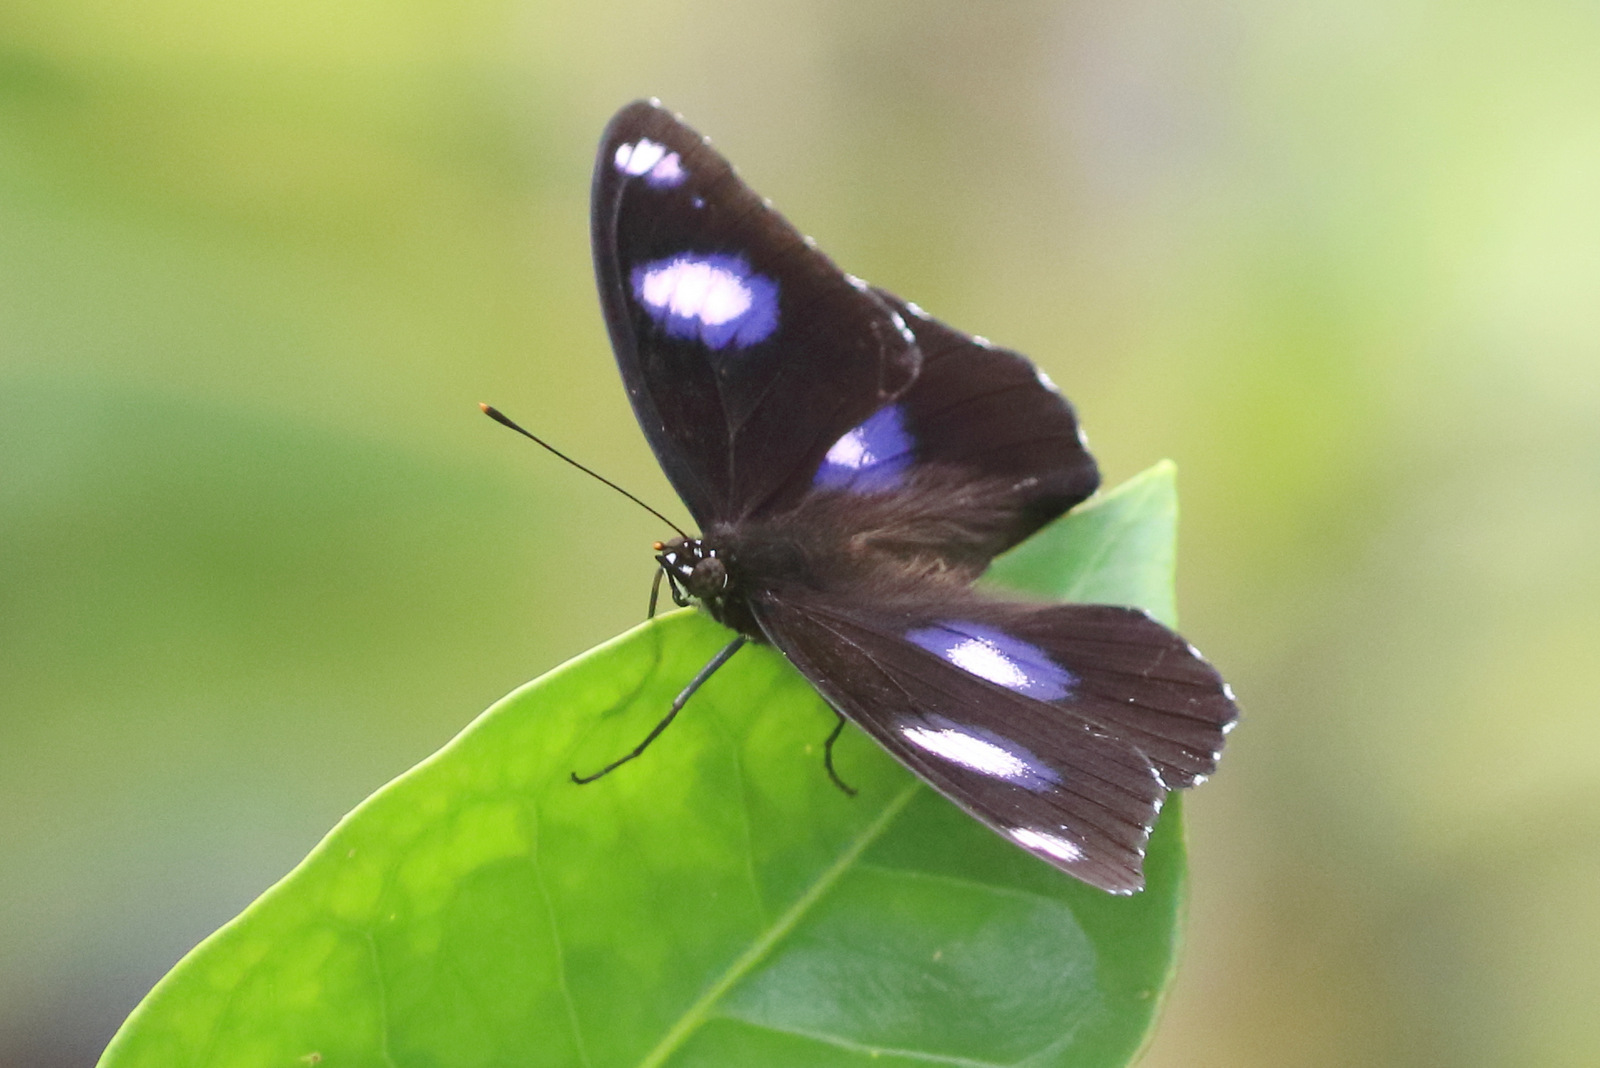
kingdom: Animalia
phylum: Arthropoda
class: Insecta
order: Lepidoptera
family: Nymphalidae
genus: Hypolimnas
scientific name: Hypolimnas bolina
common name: Great eggfly
